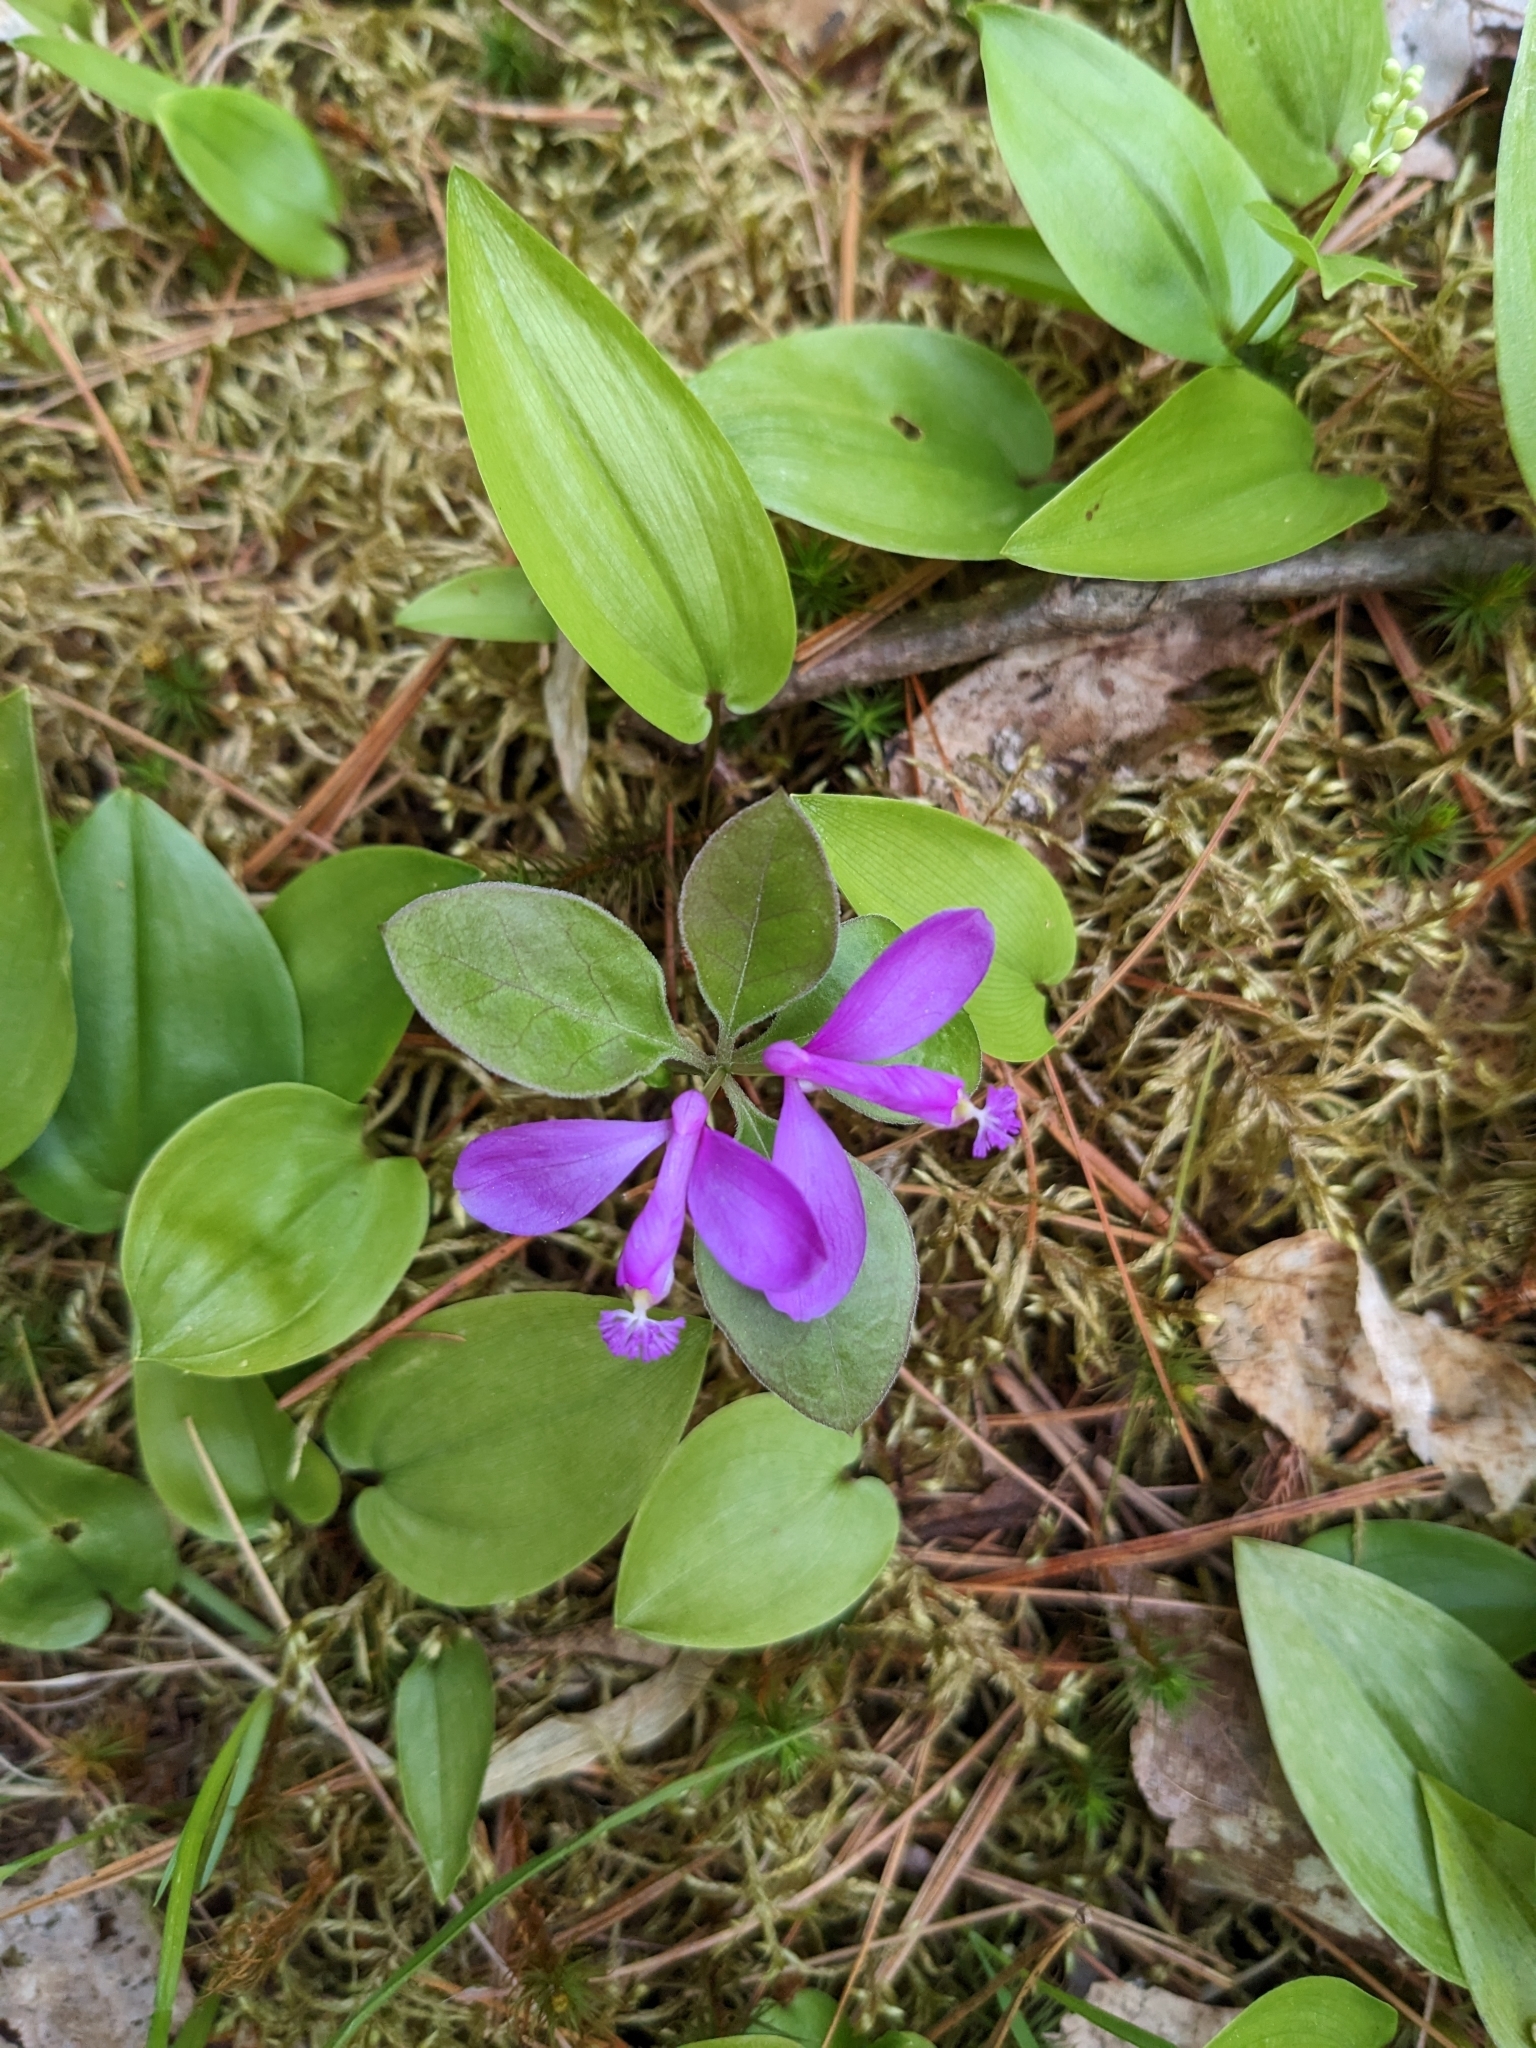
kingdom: Plantae
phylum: Tracheophyta
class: Magnoliopsida
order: Fabales
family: Polygalaceae
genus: Polygaloides
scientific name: Polygaloides paucifolia
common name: Bird-on-the-wing
